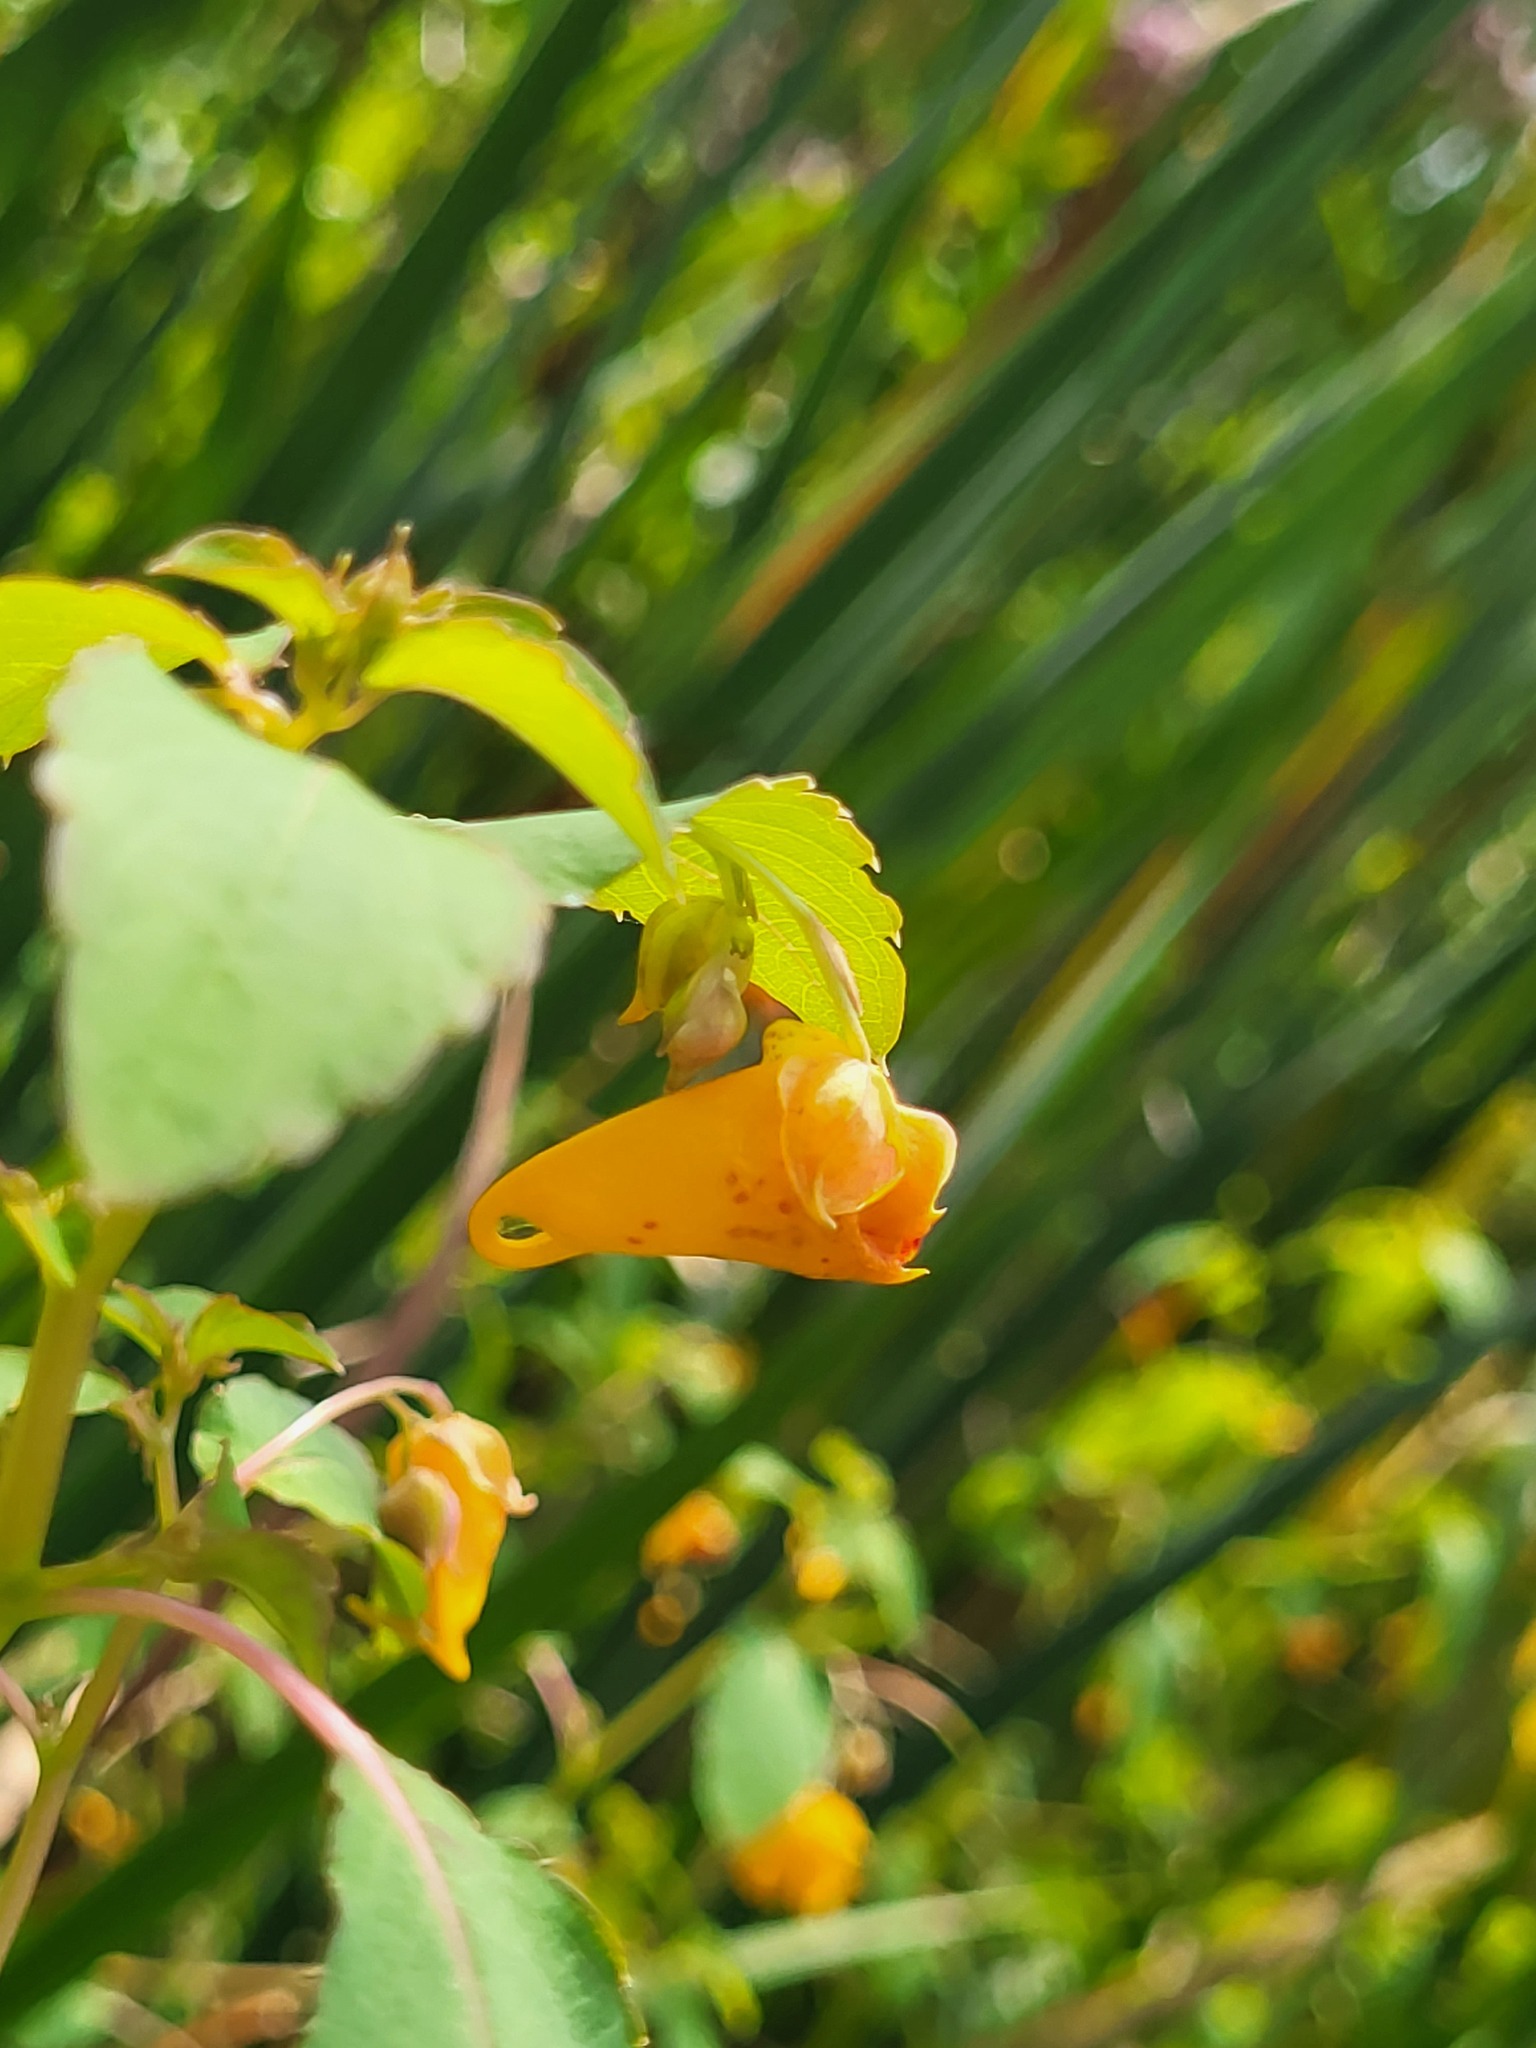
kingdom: Plantae
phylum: Tracheophyta
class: Magnoliopsida
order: Ericales
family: Balsaminaceae
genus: Impatiens
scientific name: Impatiens capensis
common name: Orange balsam
